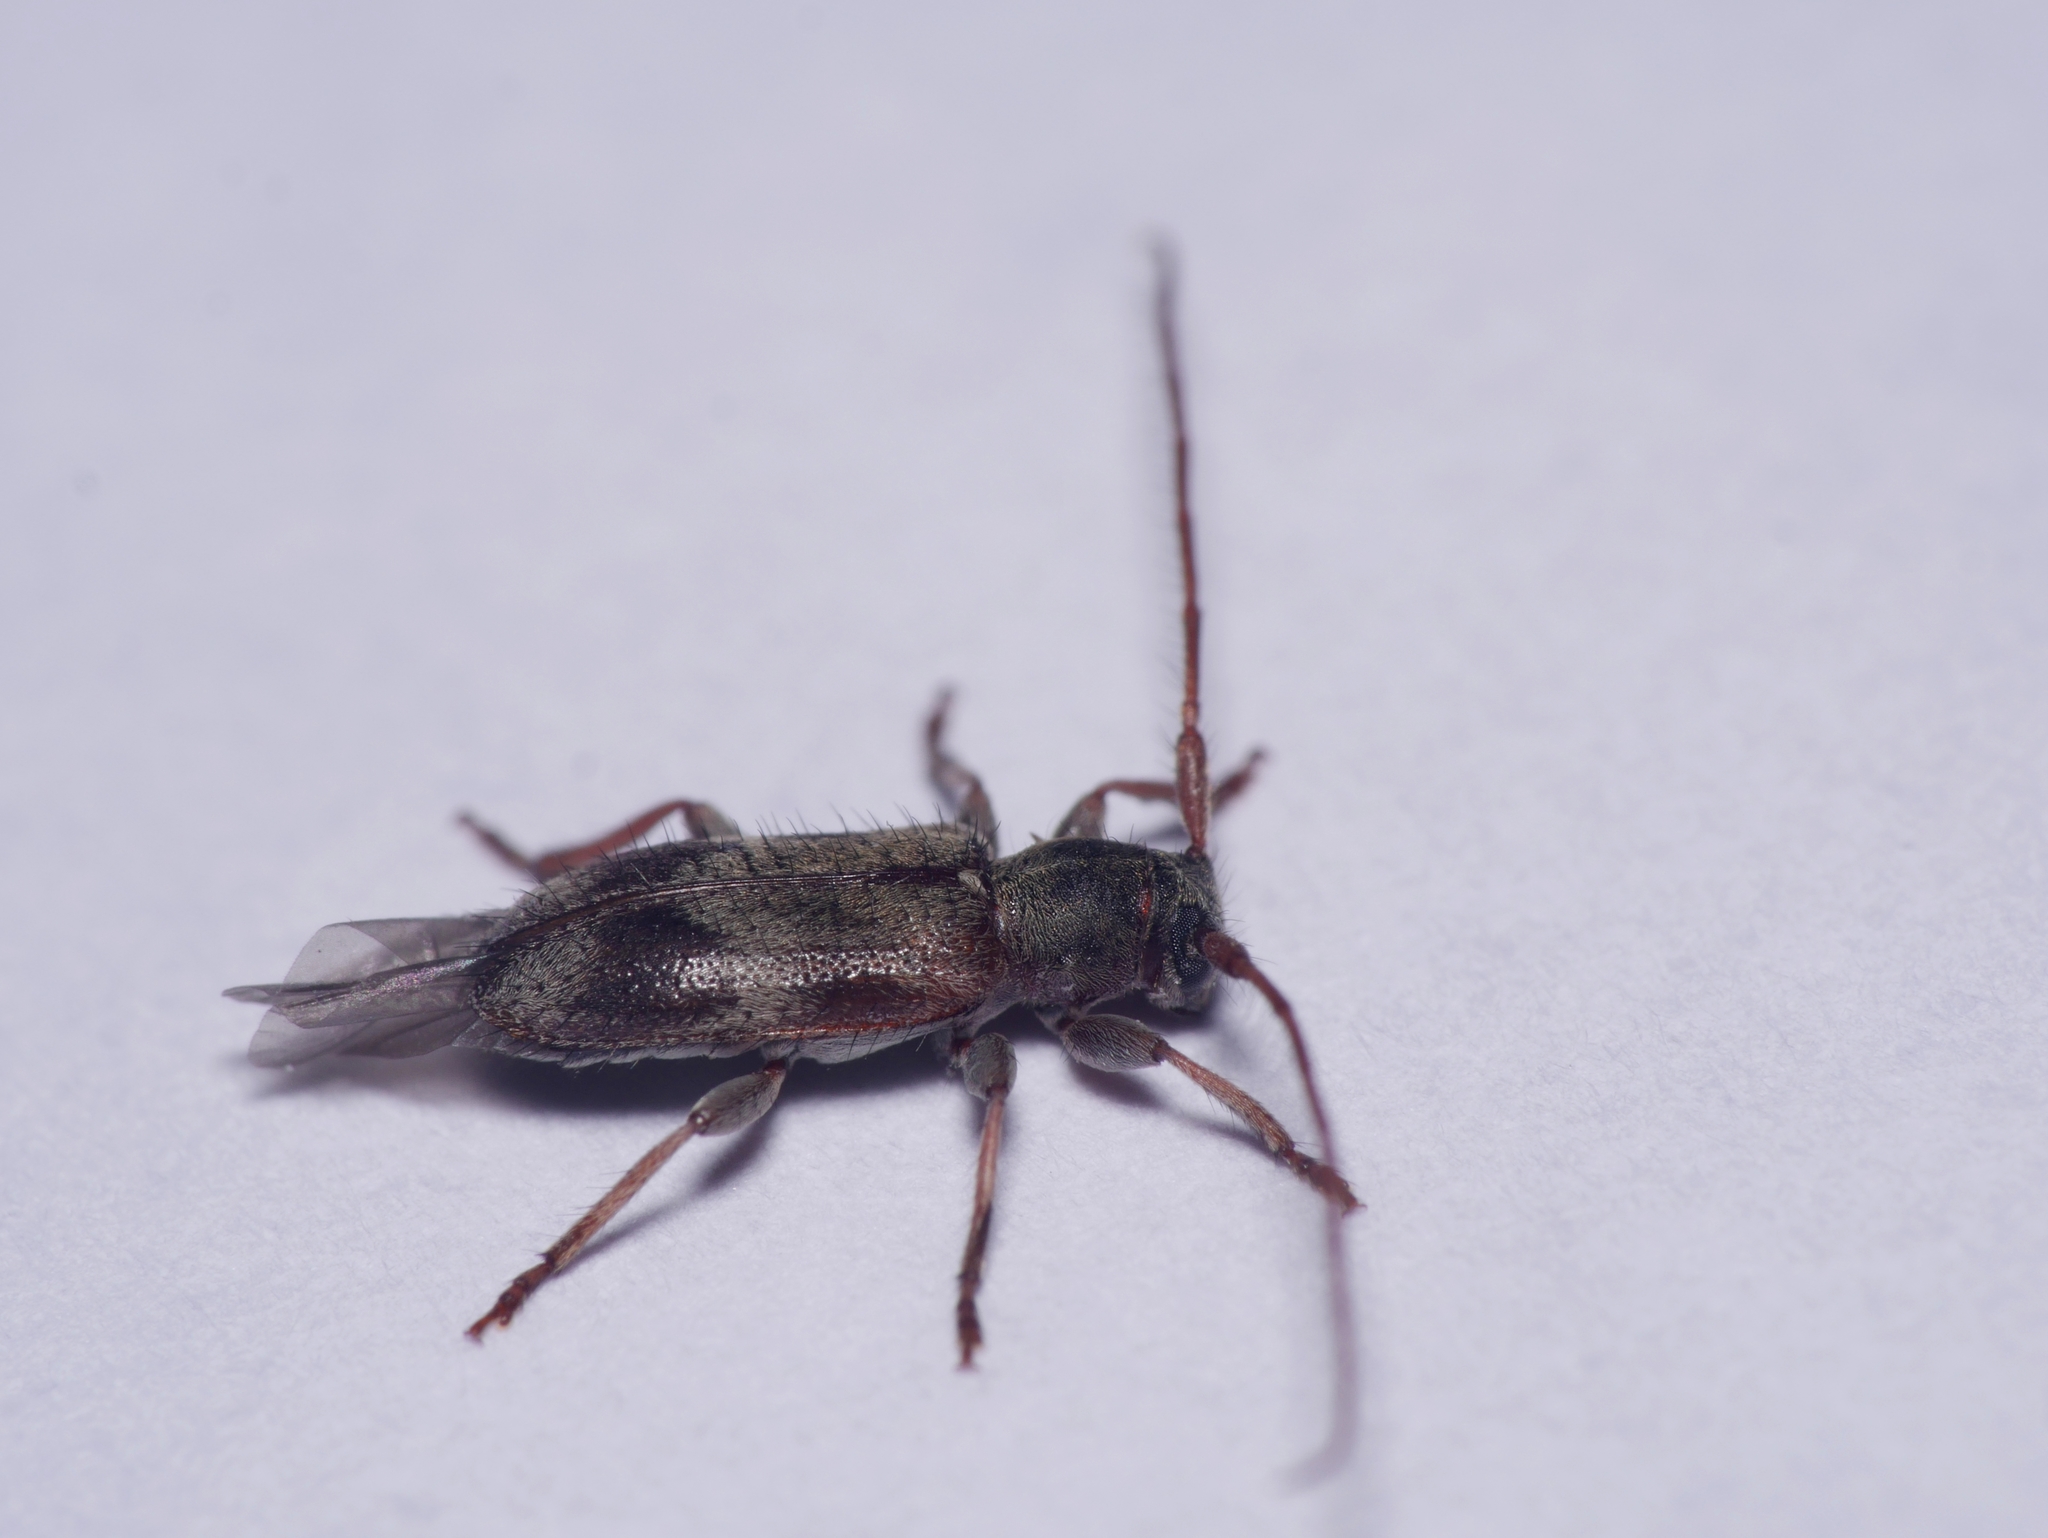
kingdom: Animalia
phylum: Arthropoda
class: Insecta
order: Coleoptera
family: Cerambycidae
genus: Exocentrus
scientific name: Exocentrus lusitanus
